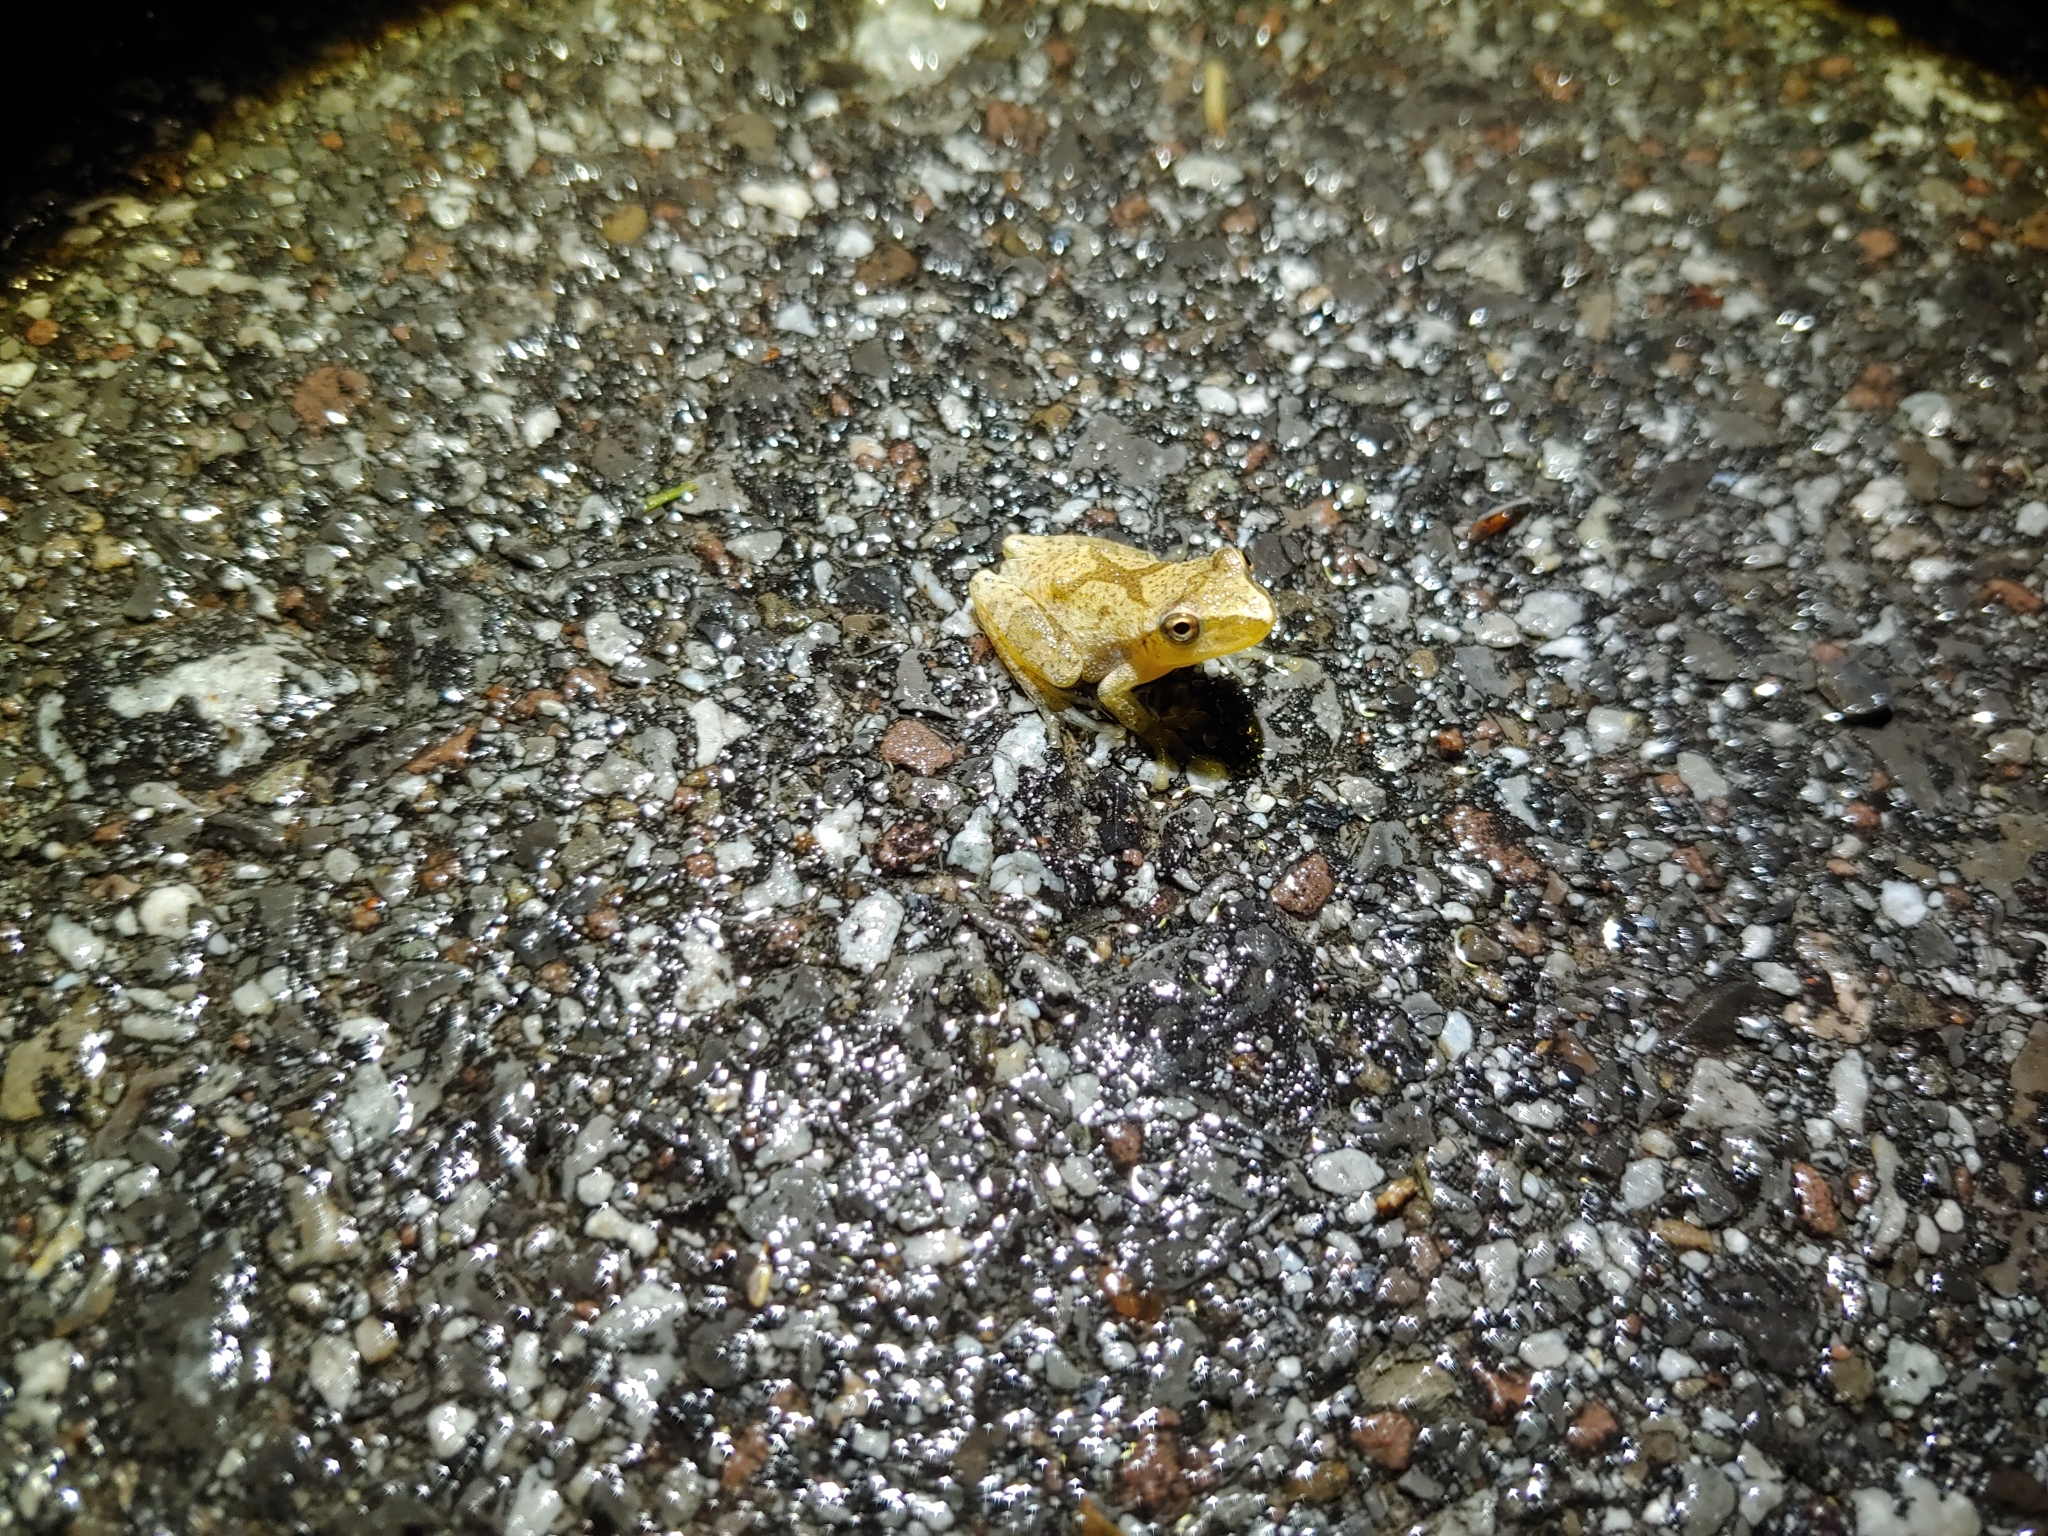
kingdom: Animalia
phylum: Chordata
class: Amphibia
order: Anura
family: Hylidae
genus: Pseudacris
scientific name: Pseudacris crucifer
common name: Spring peeper
